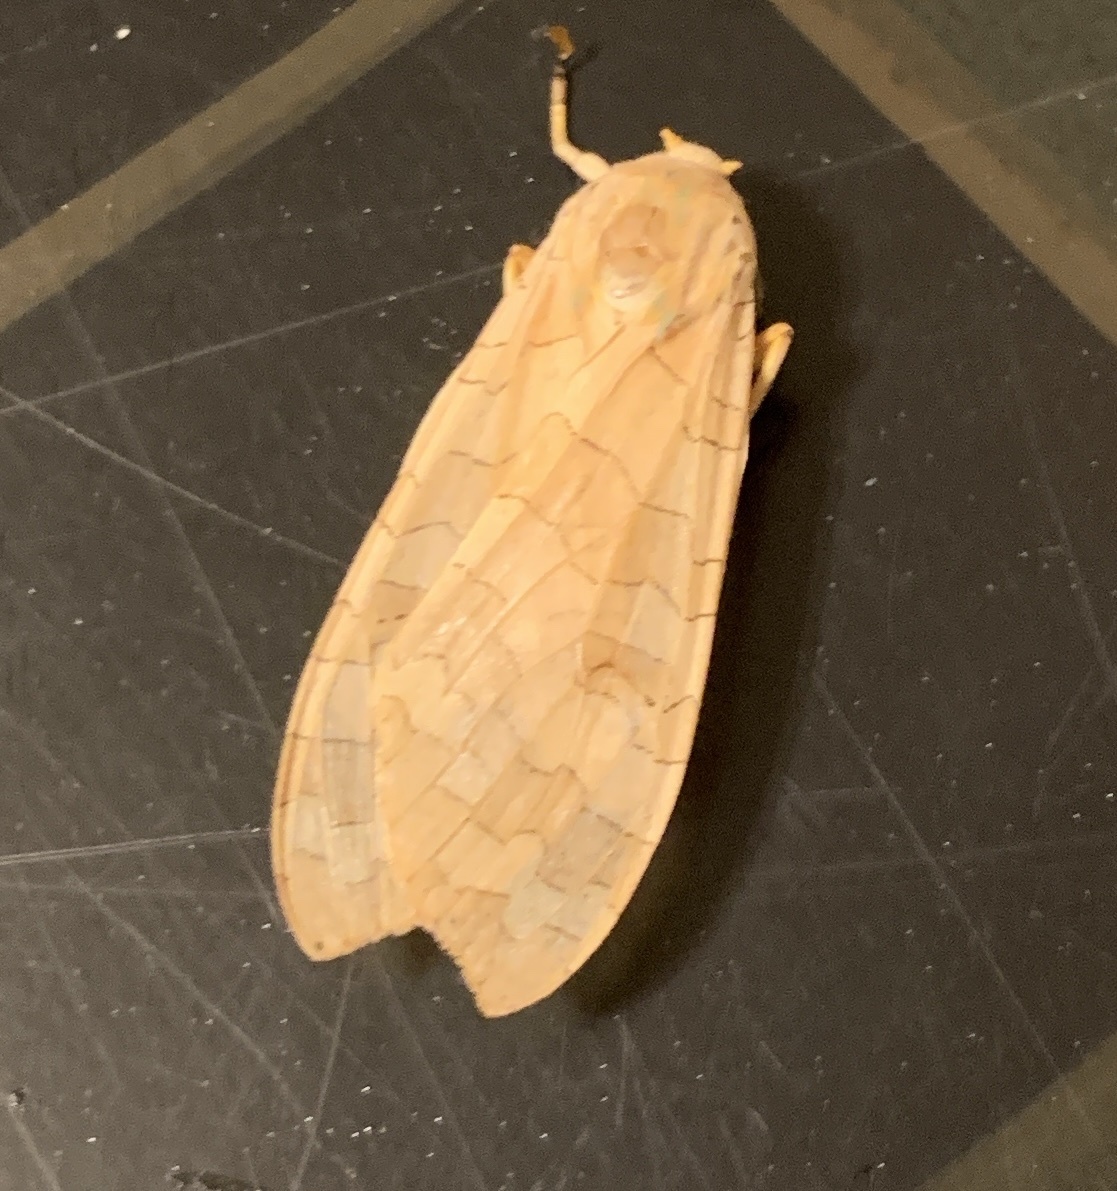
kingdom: Animalia
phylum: Arthropoda
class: Insecta
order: Lepidoptera
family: Erebidae
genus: Halysidota
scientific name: Halysidota
